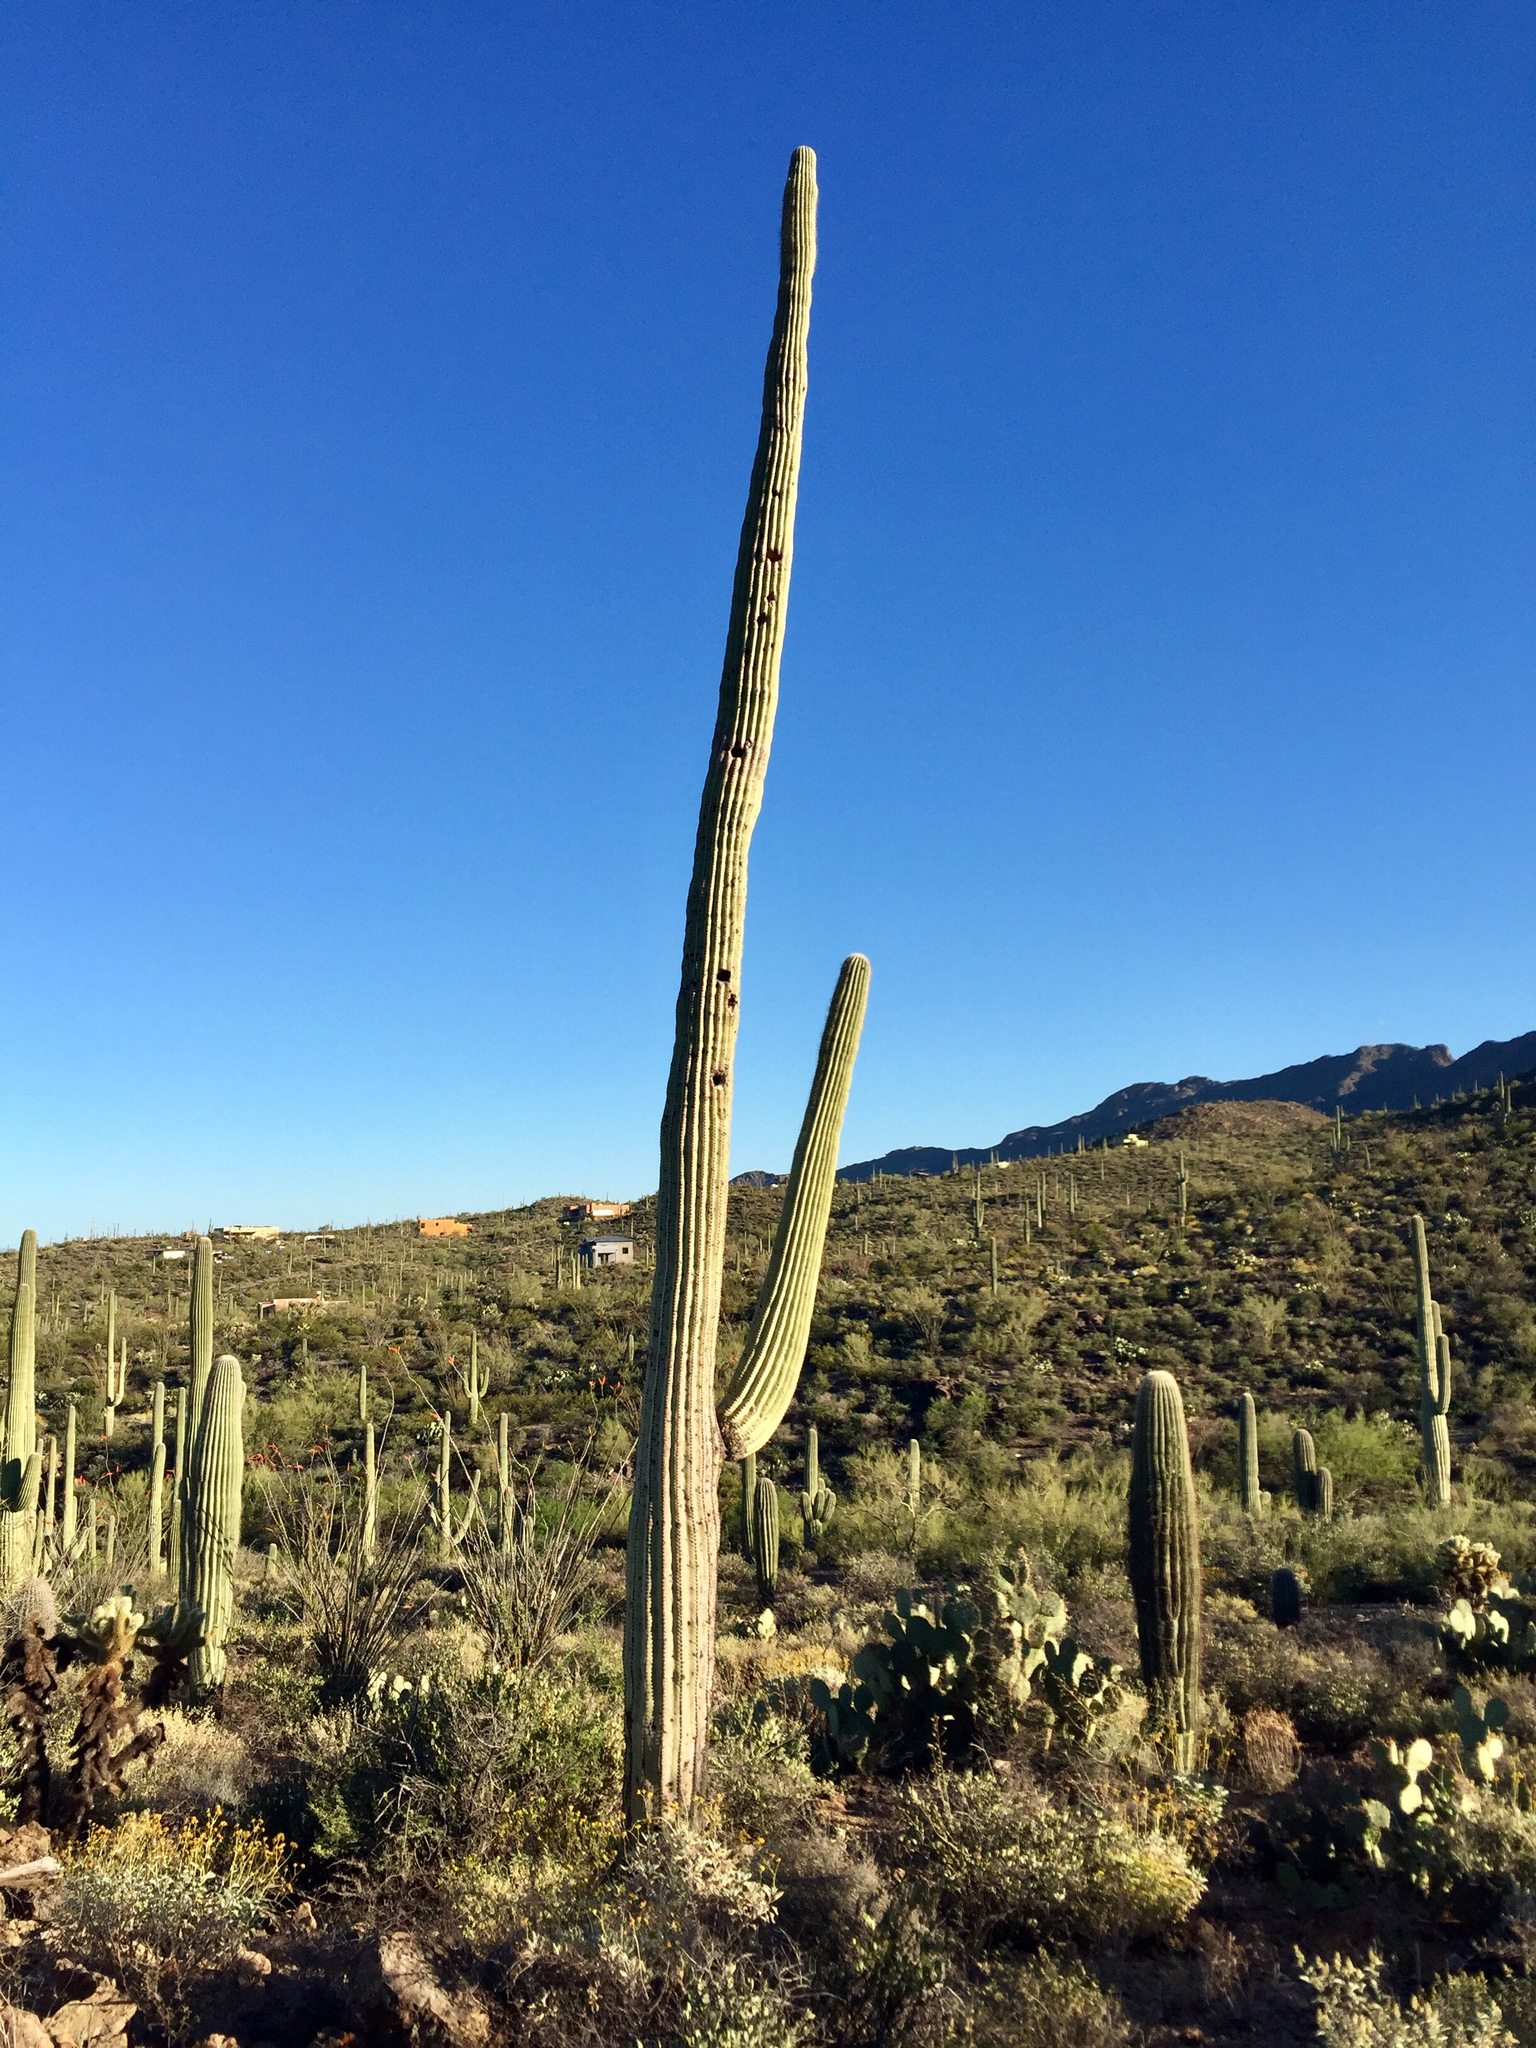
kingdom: Plantae
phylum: Tracheophyta
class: Magnoliopsida
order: Caryophyllales
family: Cactaceae
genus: Carnegiea
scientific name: Carnegiea gigantea
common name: Saguaro
